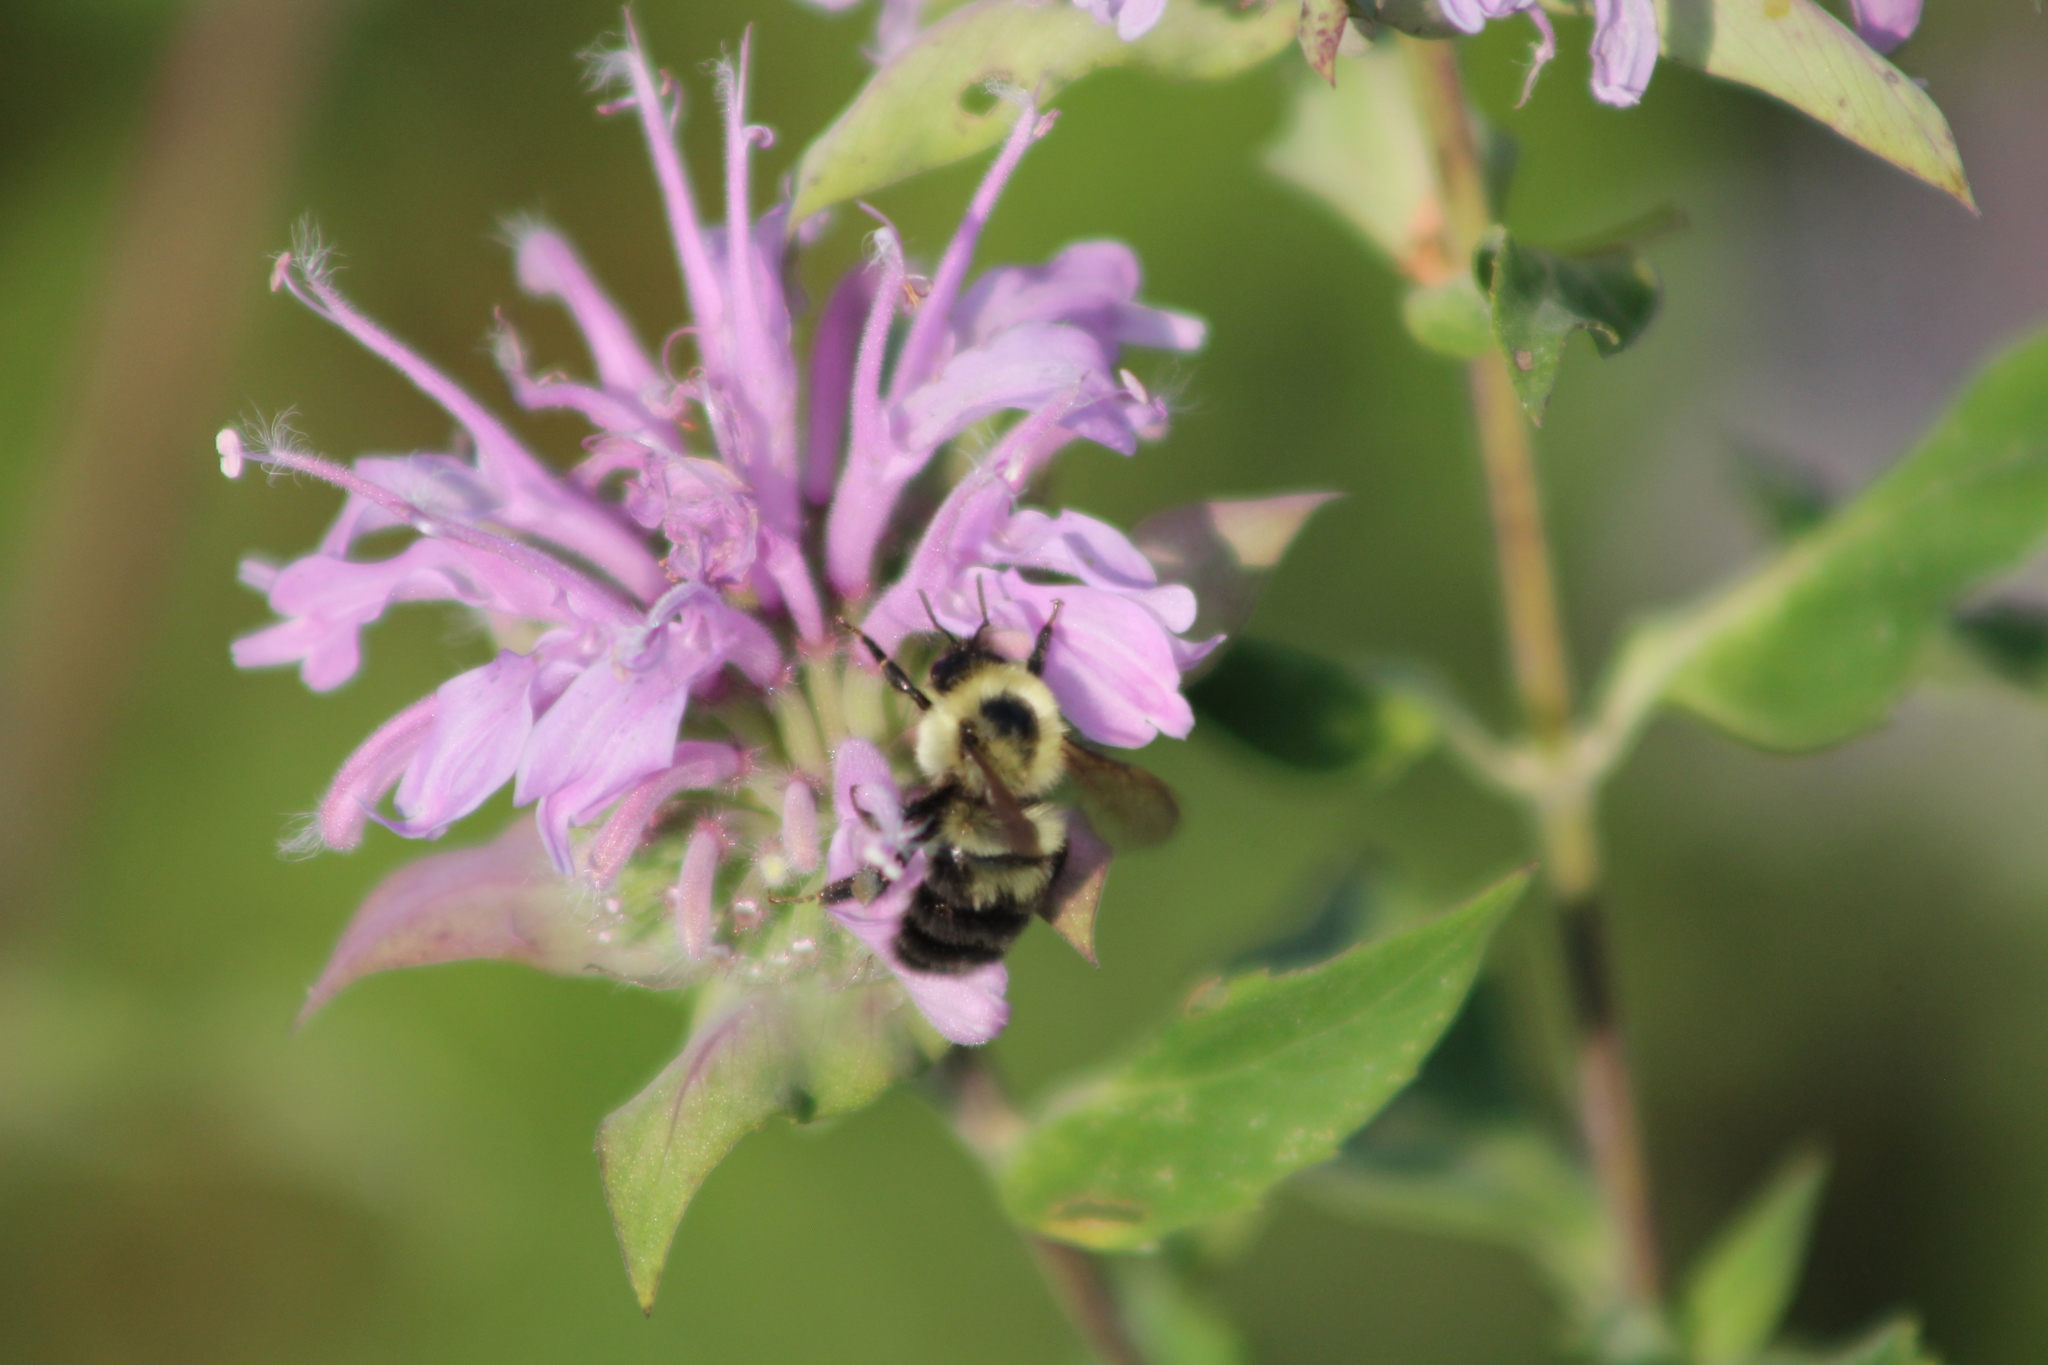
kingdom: Animalia
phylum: Arthropoda
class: Insecta
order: Hymenoptera
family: Apidae
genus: Bombus
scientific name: Bombus bimaculatus
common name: Two-spotted bumble bee
